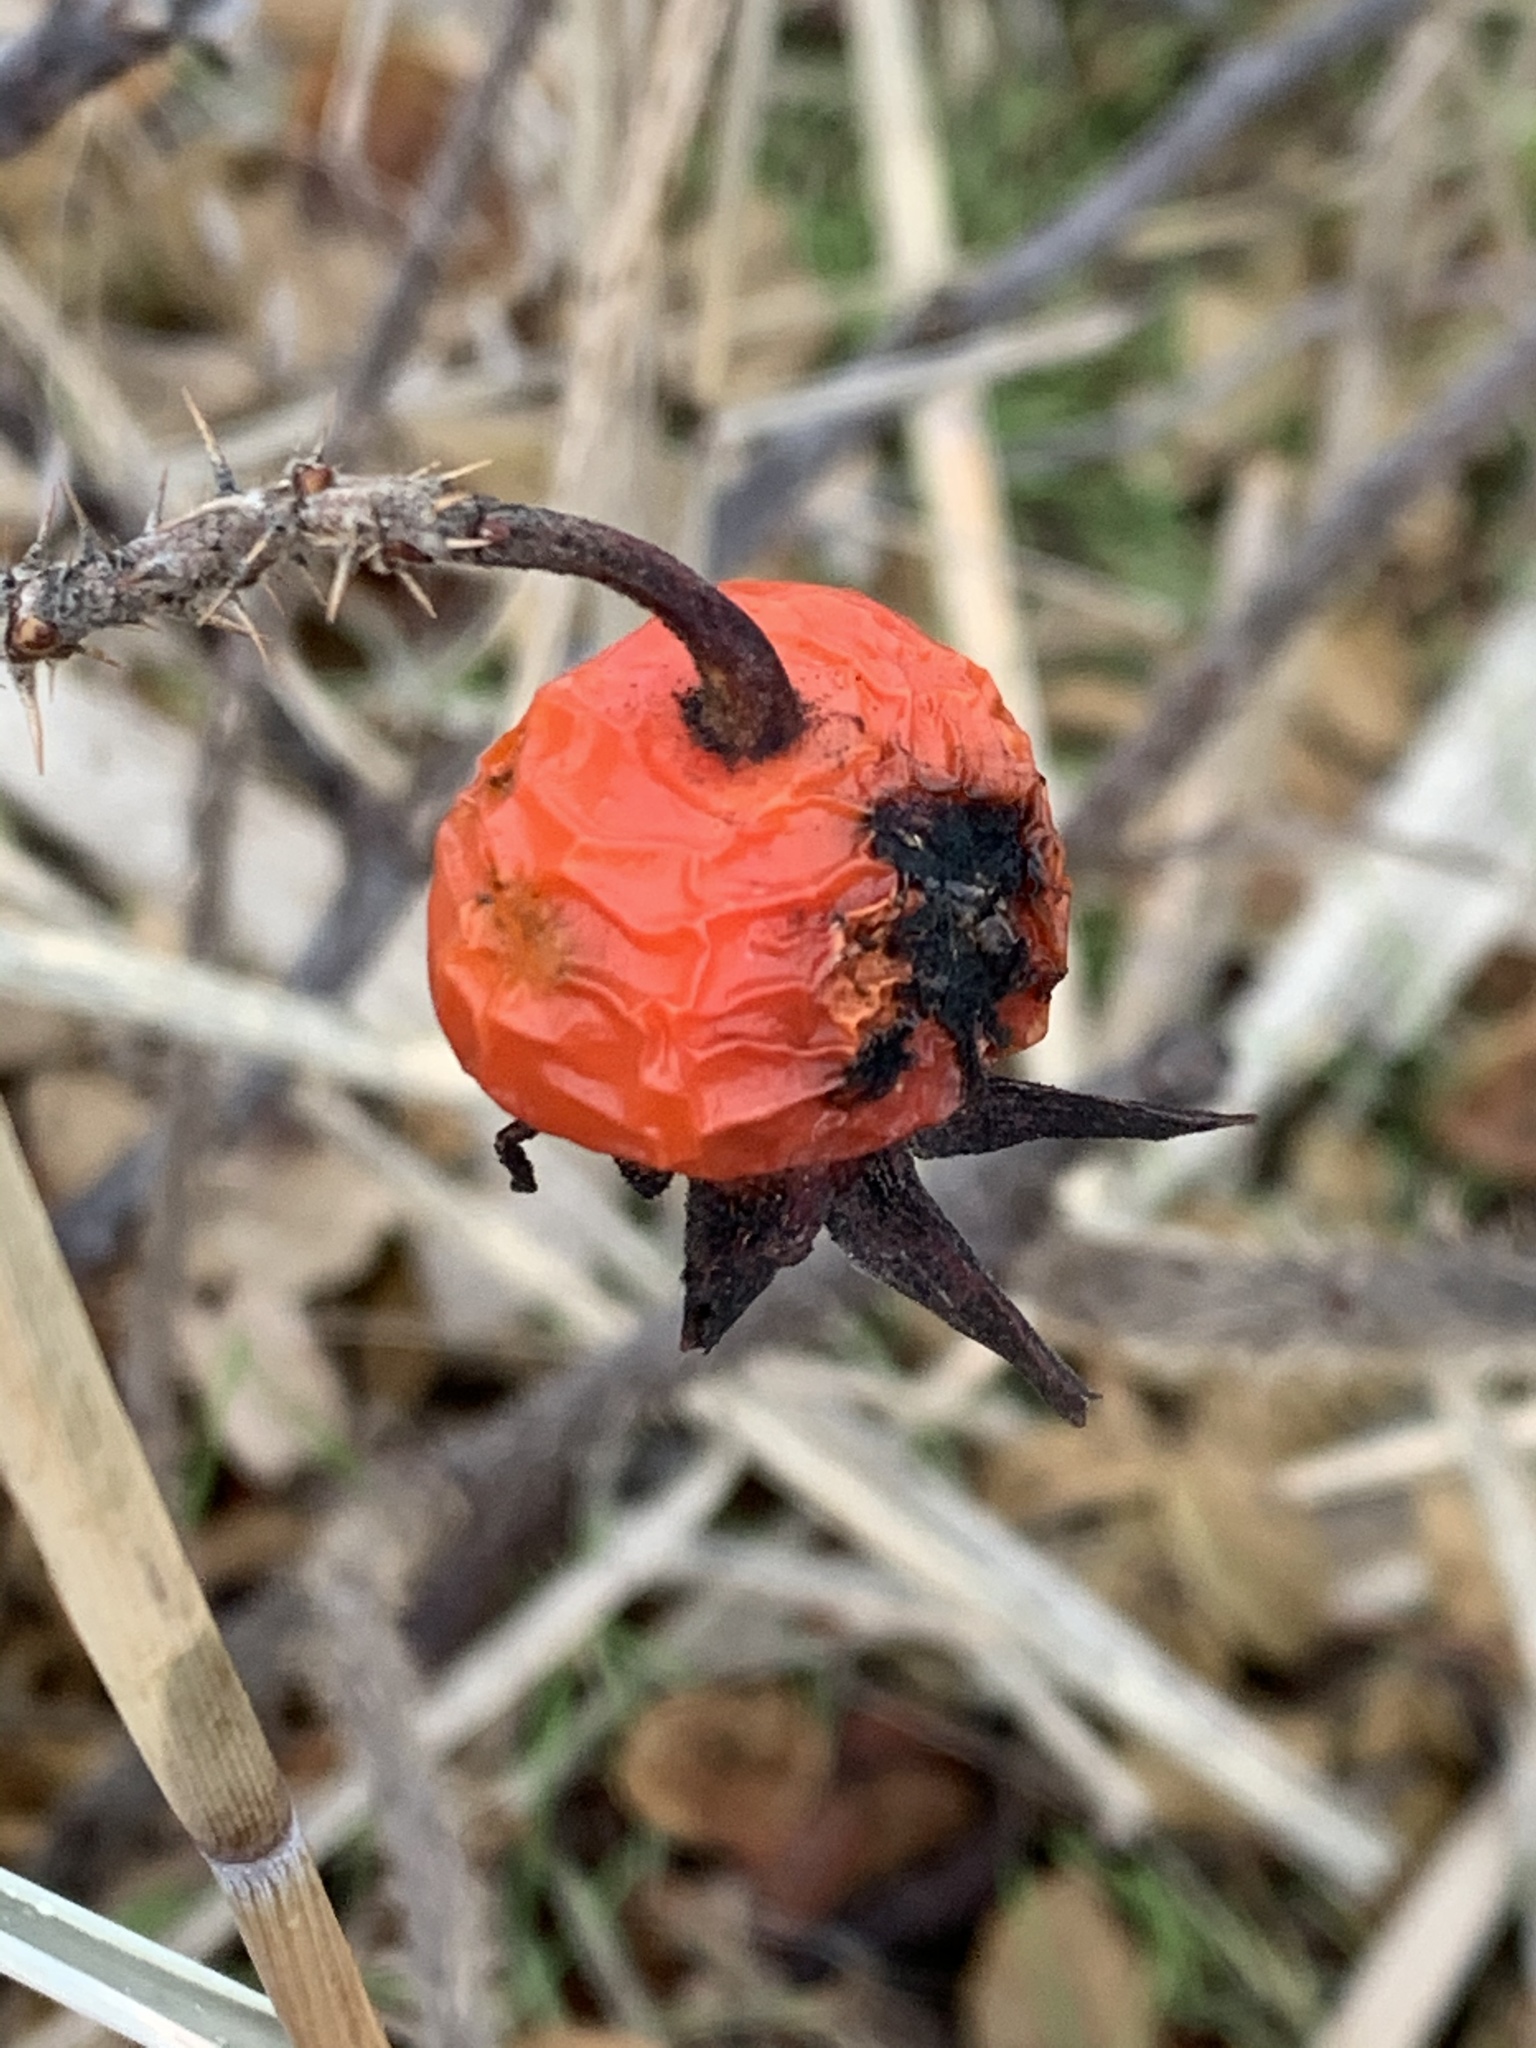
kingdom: Plantae
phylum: Tracheophyta
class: Magnoliopsida
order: Rosales
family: Rosaceae
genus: Rosa
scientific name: Rosa rugosa
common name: Japanese rose
